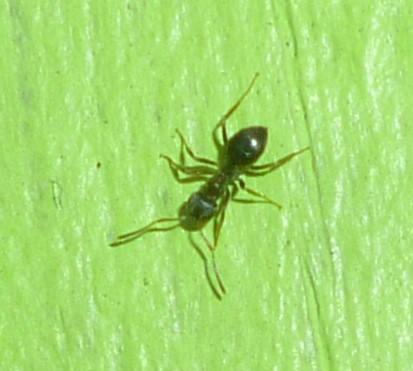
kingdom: Animalia
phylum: Arthropoda
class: Insecta
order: Hymenoptera
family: Formicidae
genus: Lasius
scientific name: Lasius
